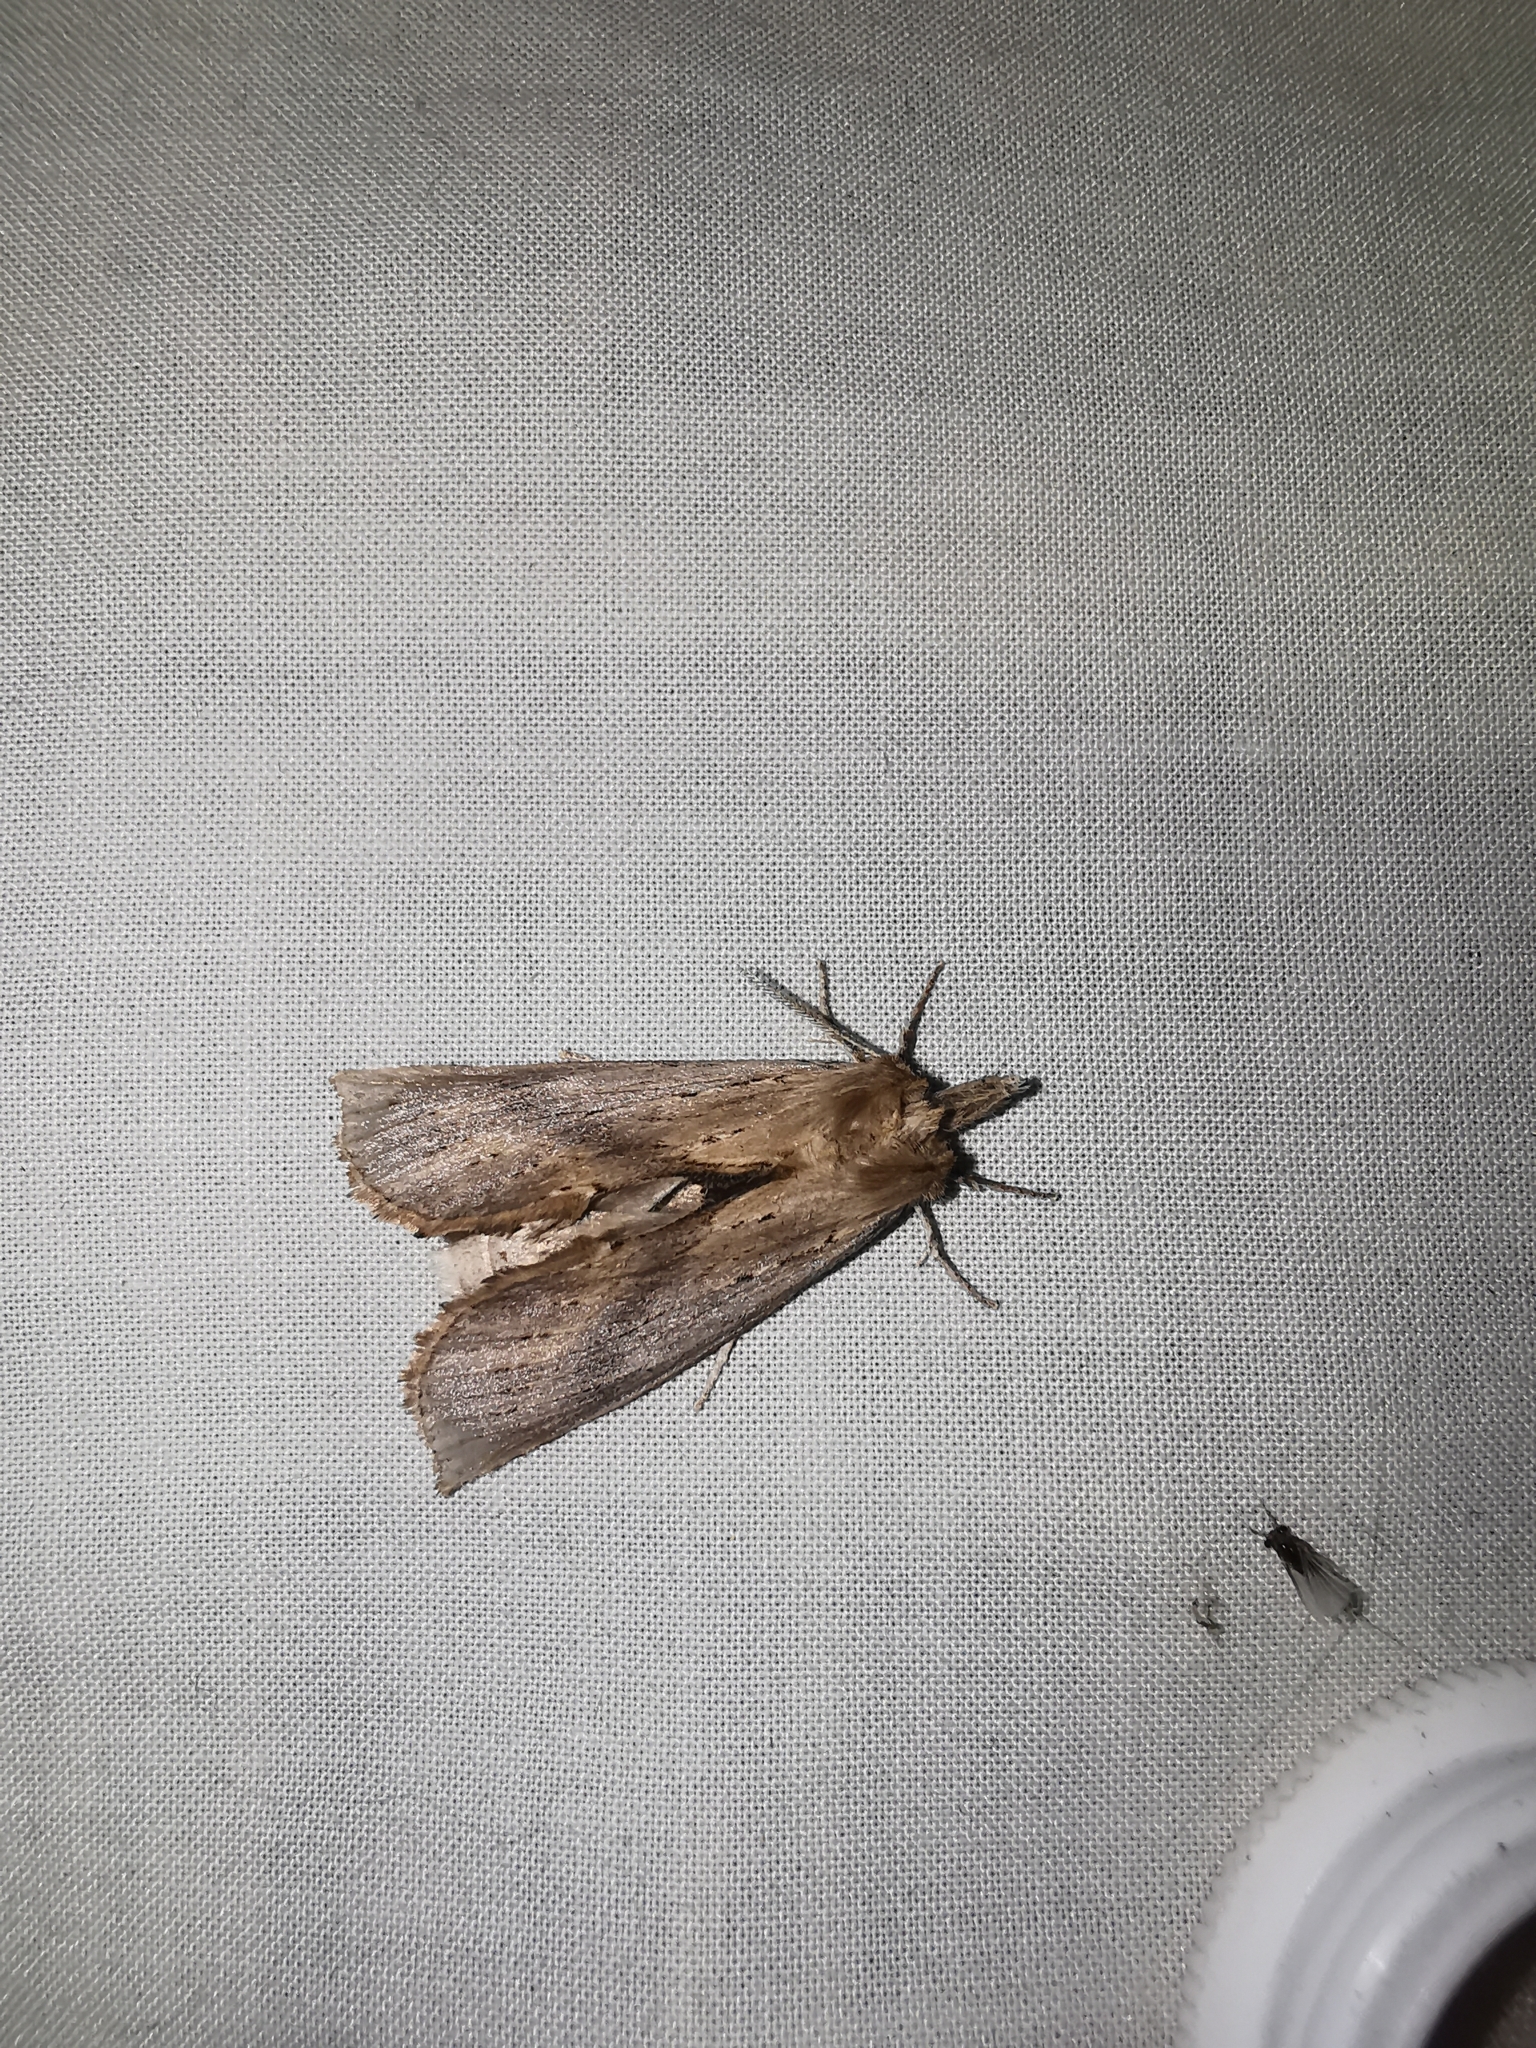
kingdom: Animalia
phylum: Arthropoda
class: Insecta
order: Lepidoptera
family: Notodontidae
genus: Pterostoma
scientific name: Pterostoma palpina
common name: Pale prominent
